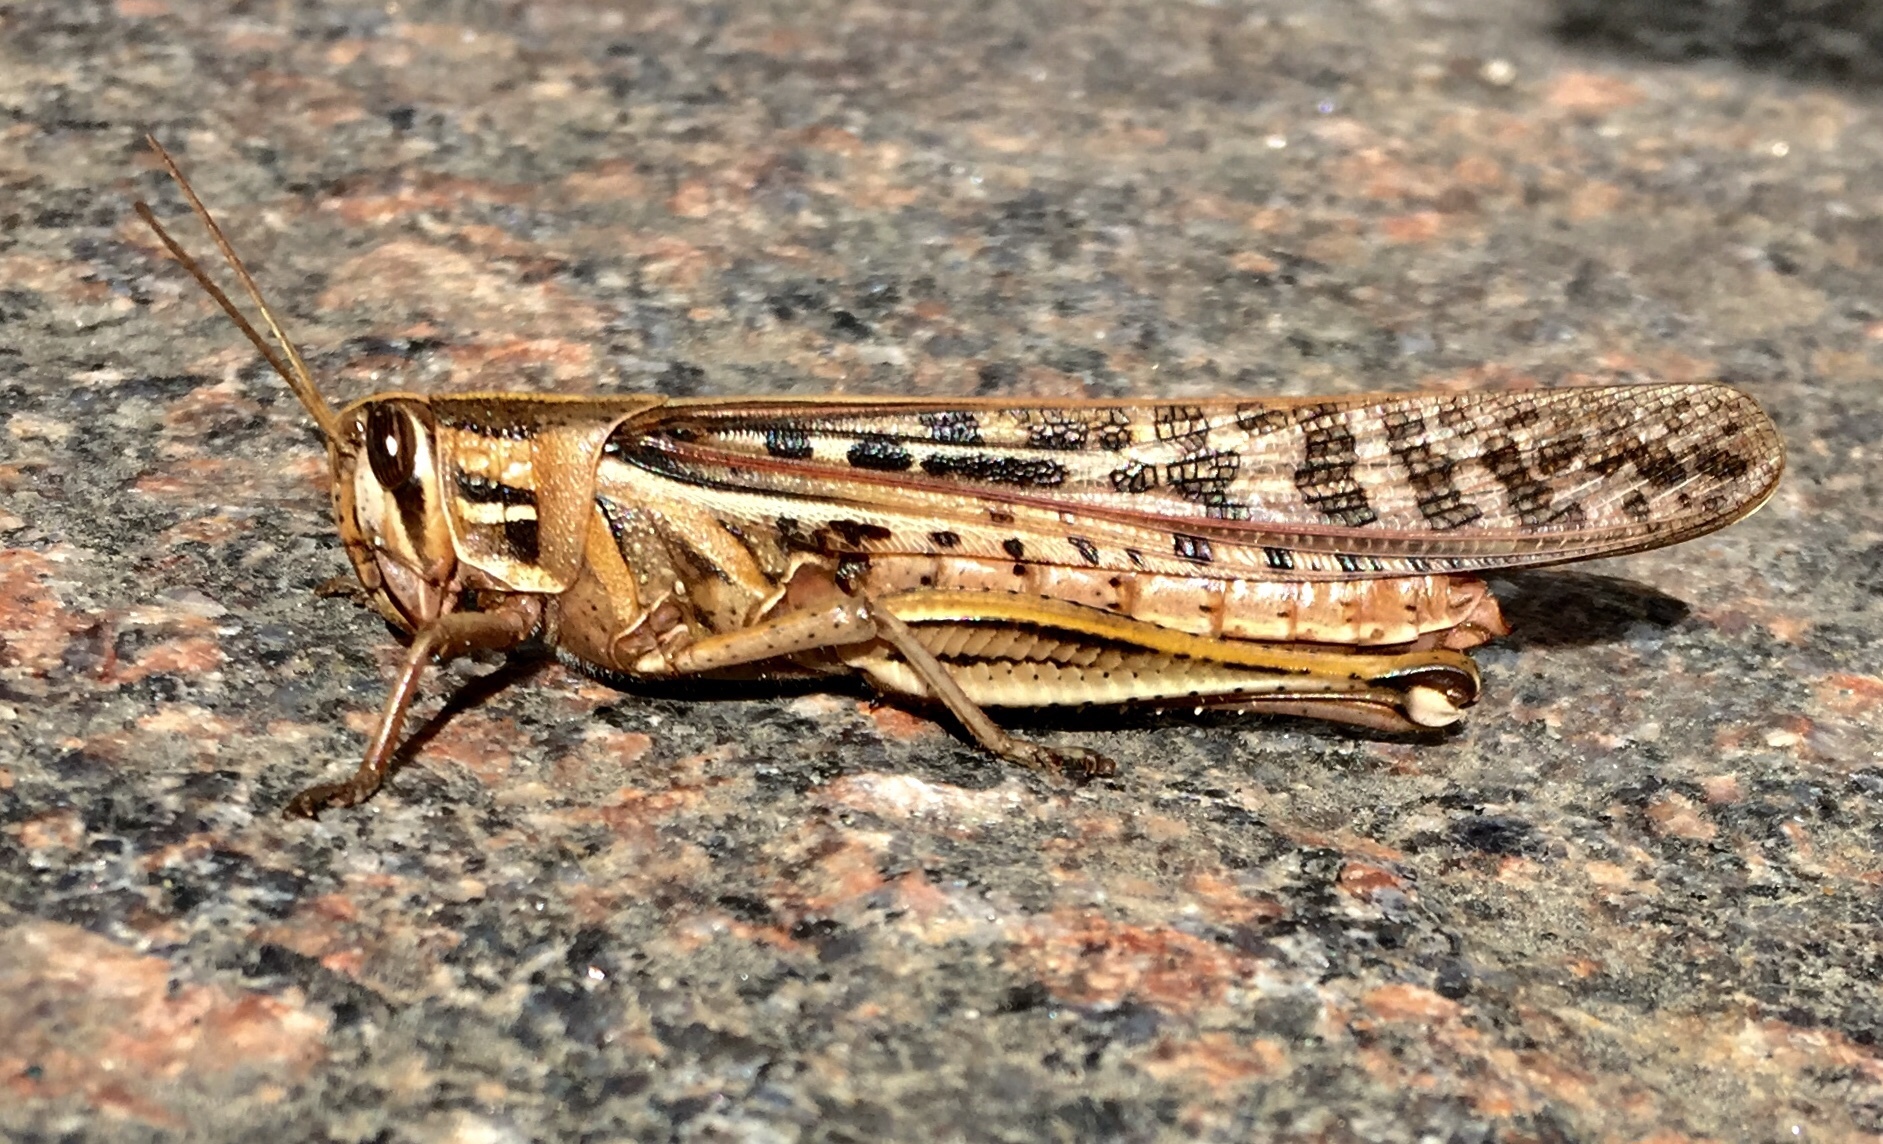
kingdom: Animalia
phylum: Arthropoda
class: Insecta
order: Orthoptera
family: Acrididae
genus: Schistocerca
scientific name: Schistocerca americana
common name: American bird locust
